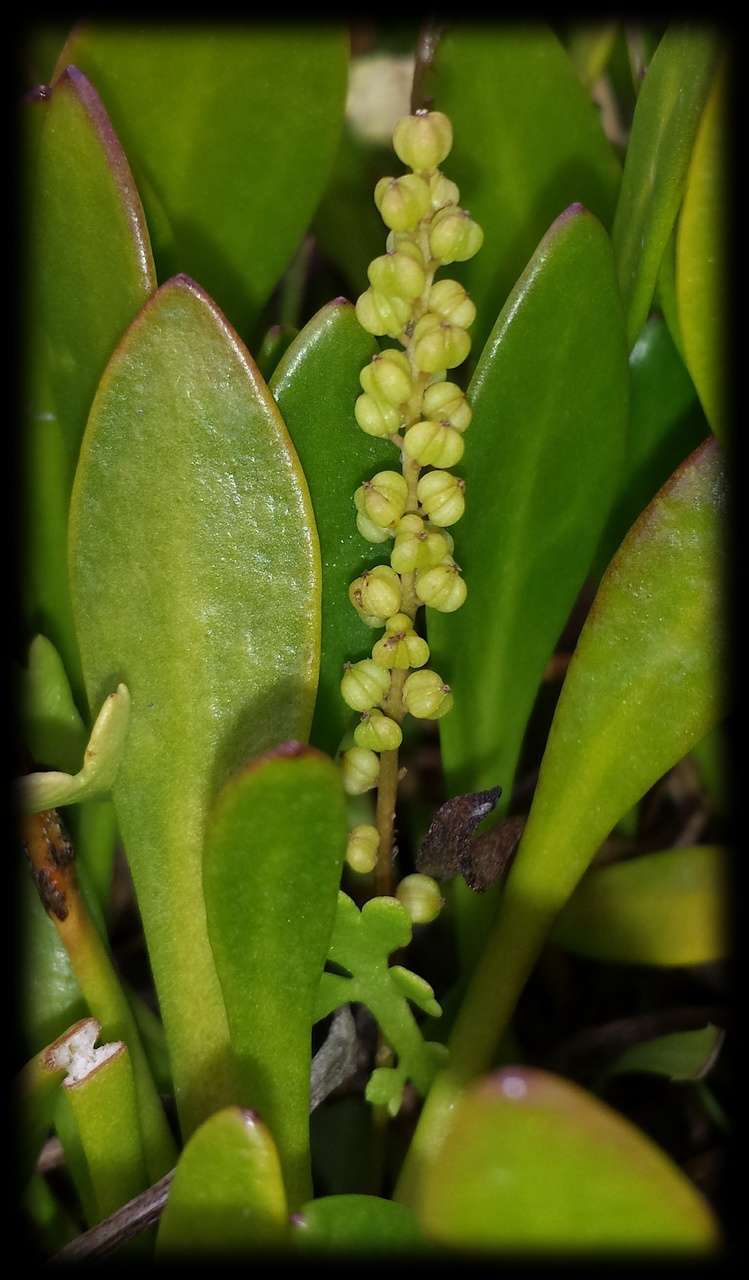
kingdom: Plantae
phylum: Tracheophyta
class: Liliopsida
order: Alismatales
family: Juncaginaceae
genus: Triglochin
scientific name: Triglochin striata
